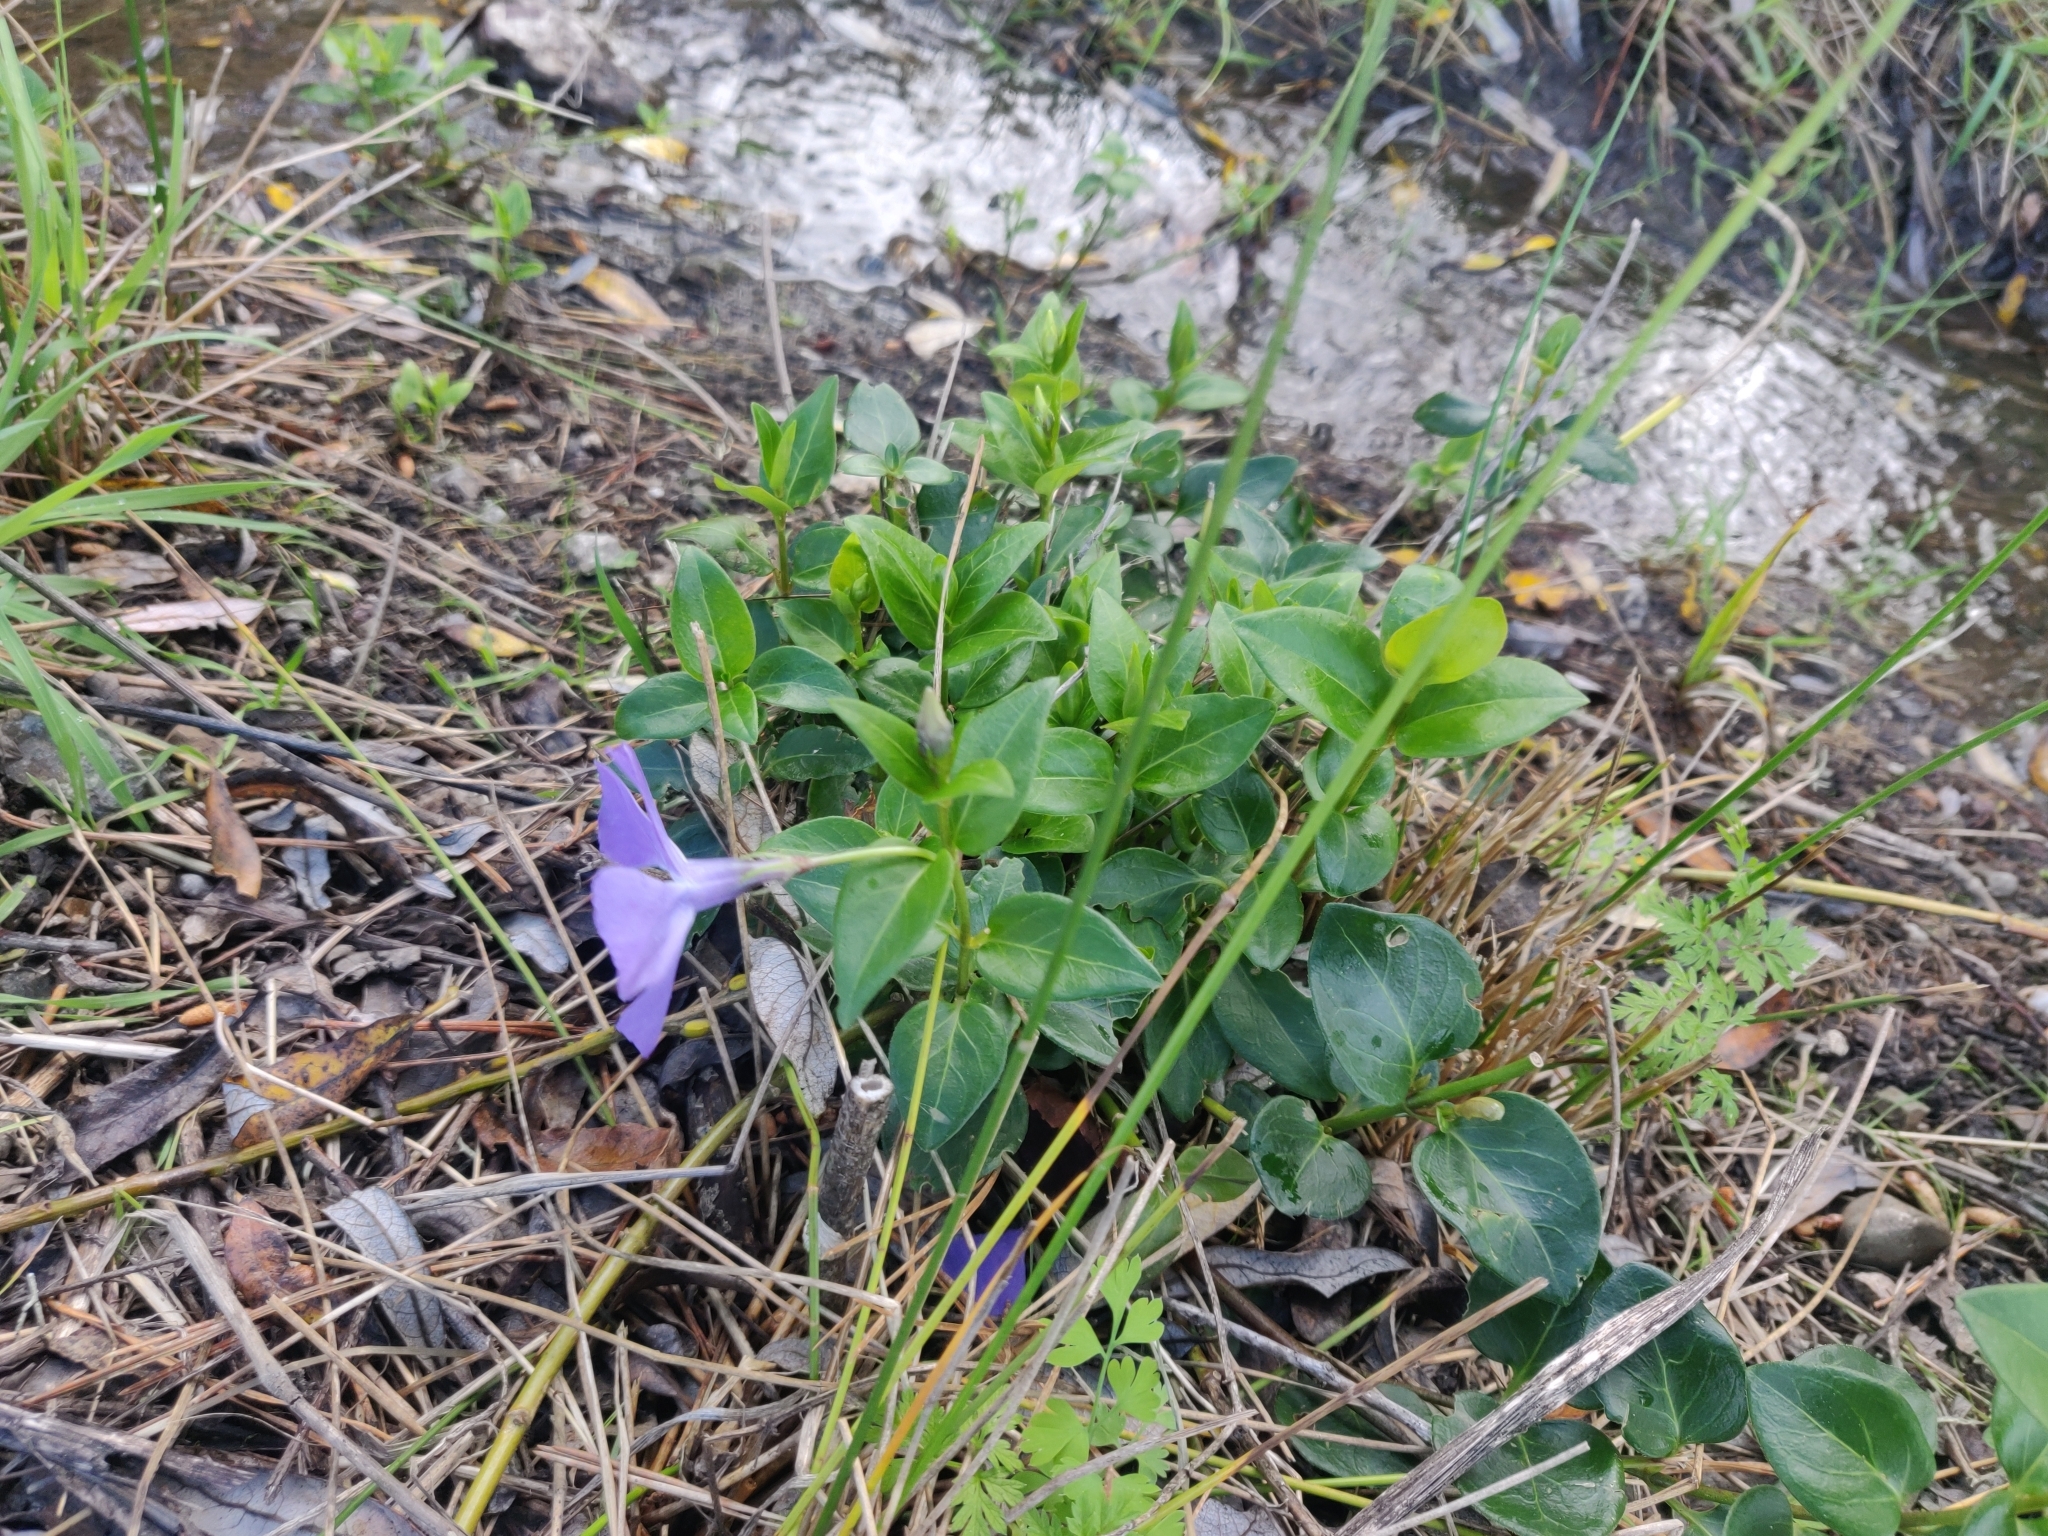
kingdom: Plantae
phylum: Tracheophyta
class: Magnoliopsida
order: Gentianales
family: Apocynaceae
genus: Vinca
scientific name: Vinca major
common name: Greater periwinkle
